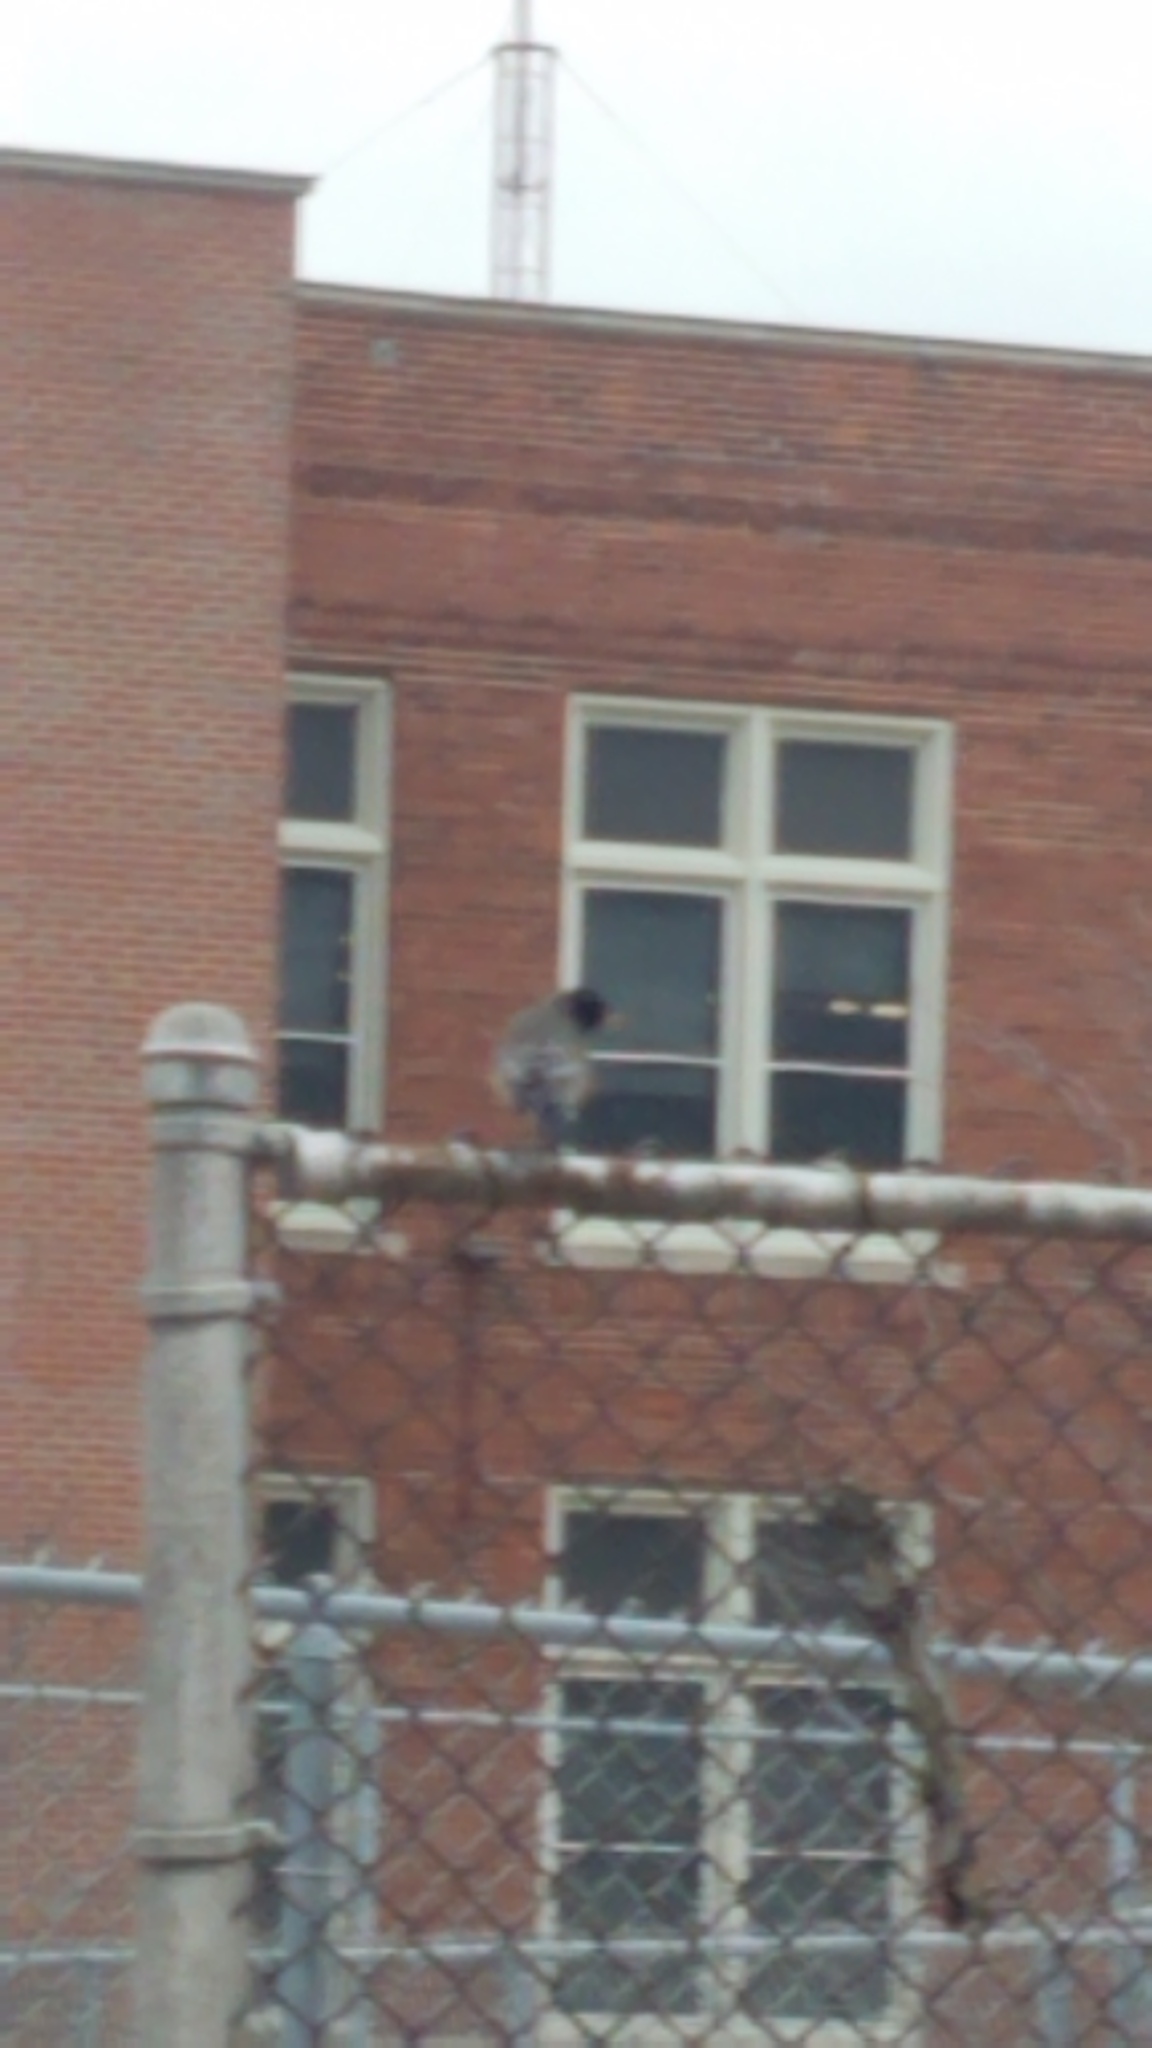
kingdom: Animalia
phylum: Chordata
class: Aves
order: Passeriformes
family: Turdidae
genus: Turdus
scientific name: Turdus migratorius
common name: American robin
